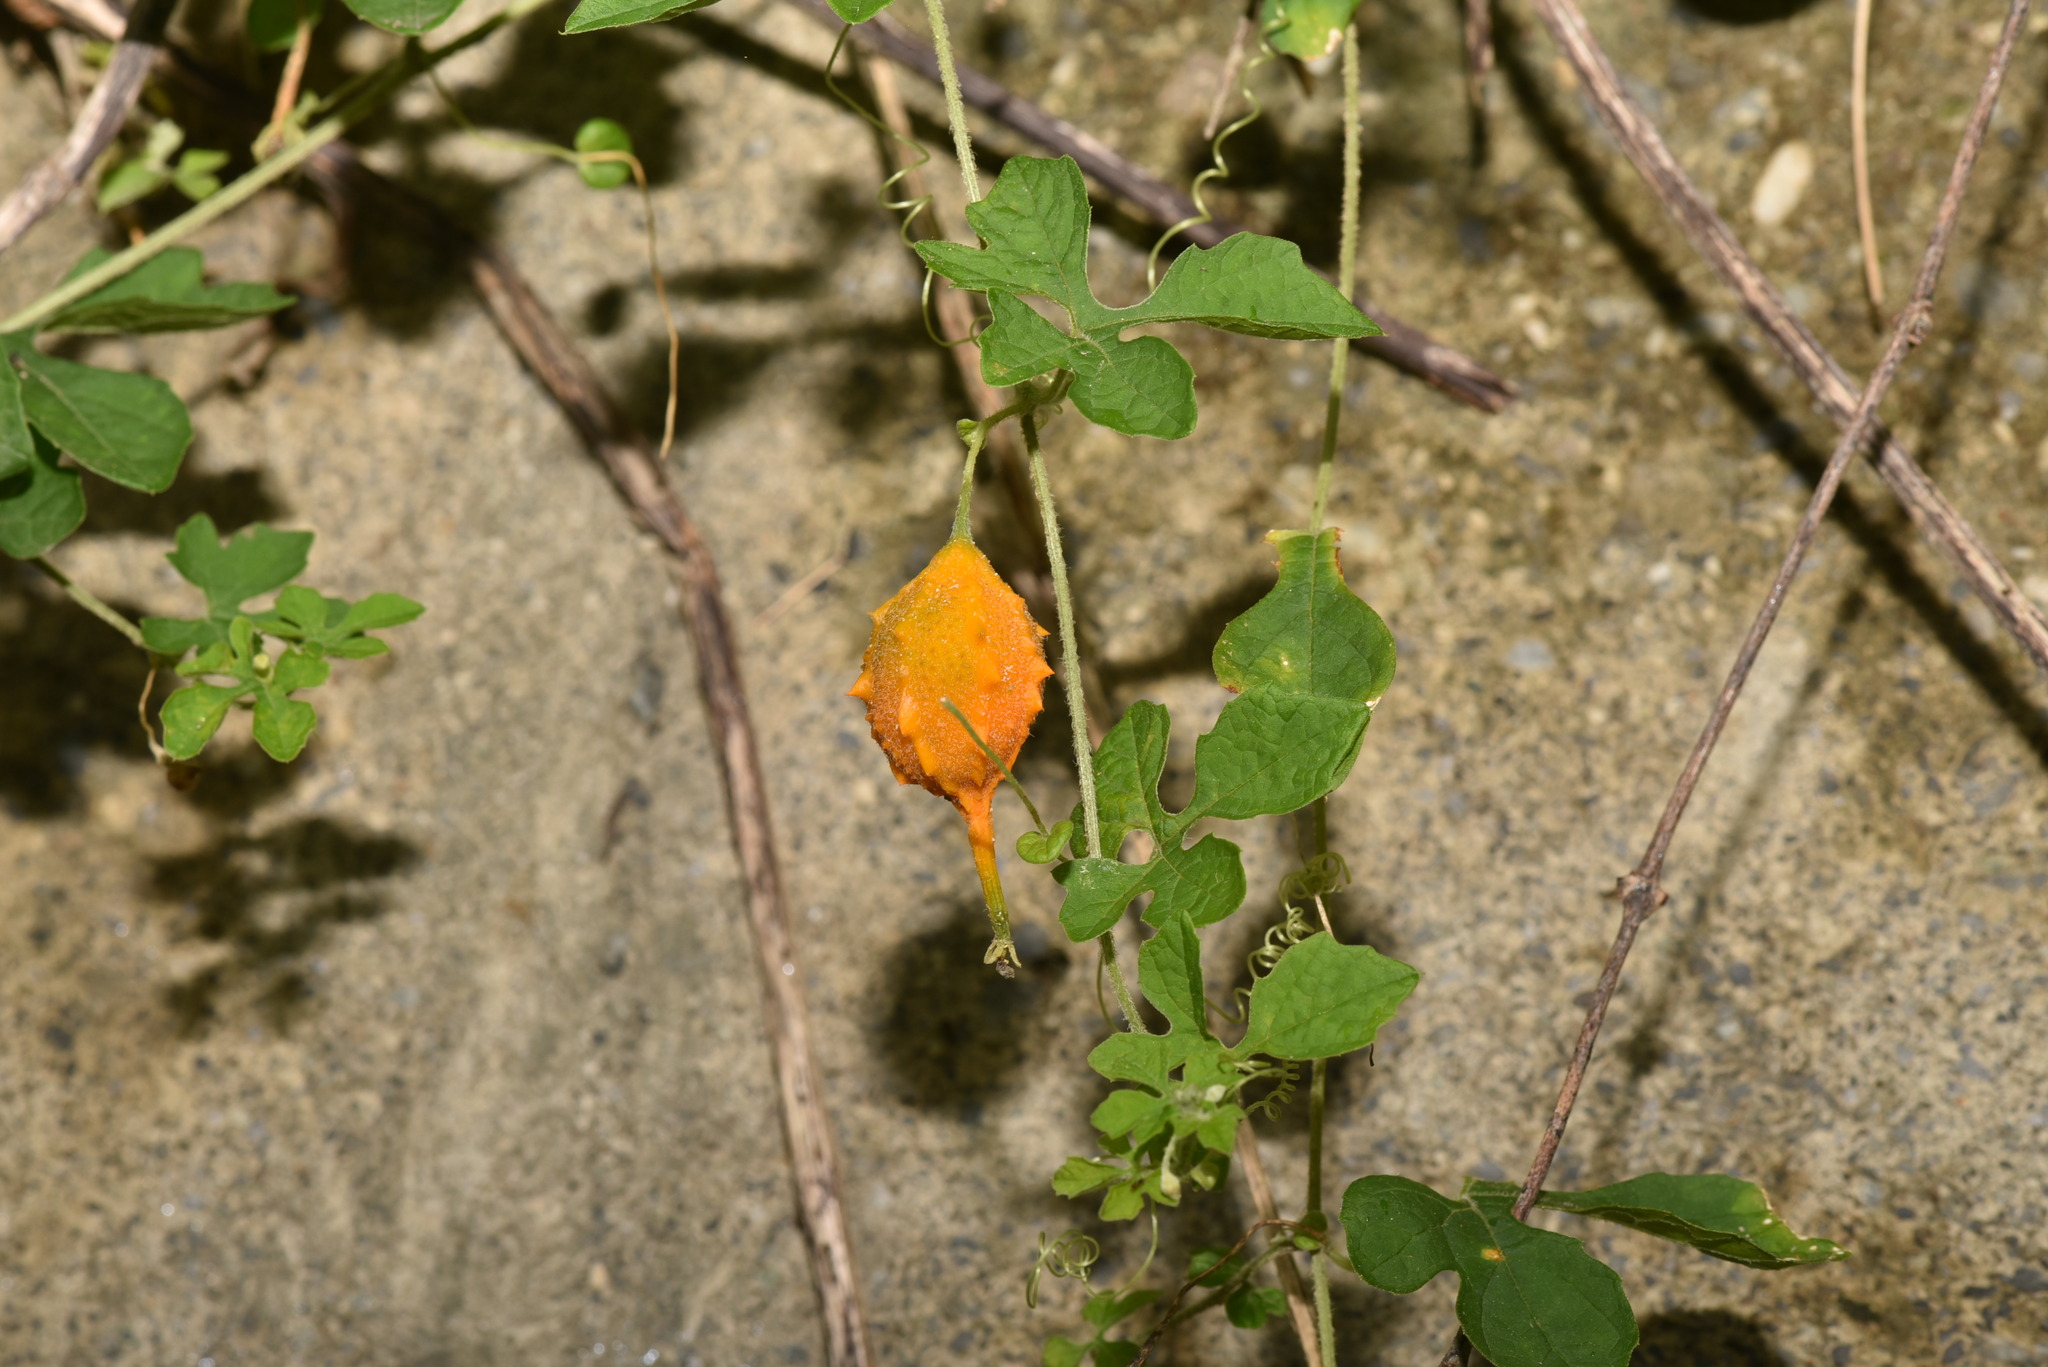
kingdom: Plantae
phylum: Tracheophyta
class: Magnoliopsida
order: Cucurbitales
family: Cucurbitaceae
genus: Momordica
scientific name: Momordica charantia
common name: Balsampear
